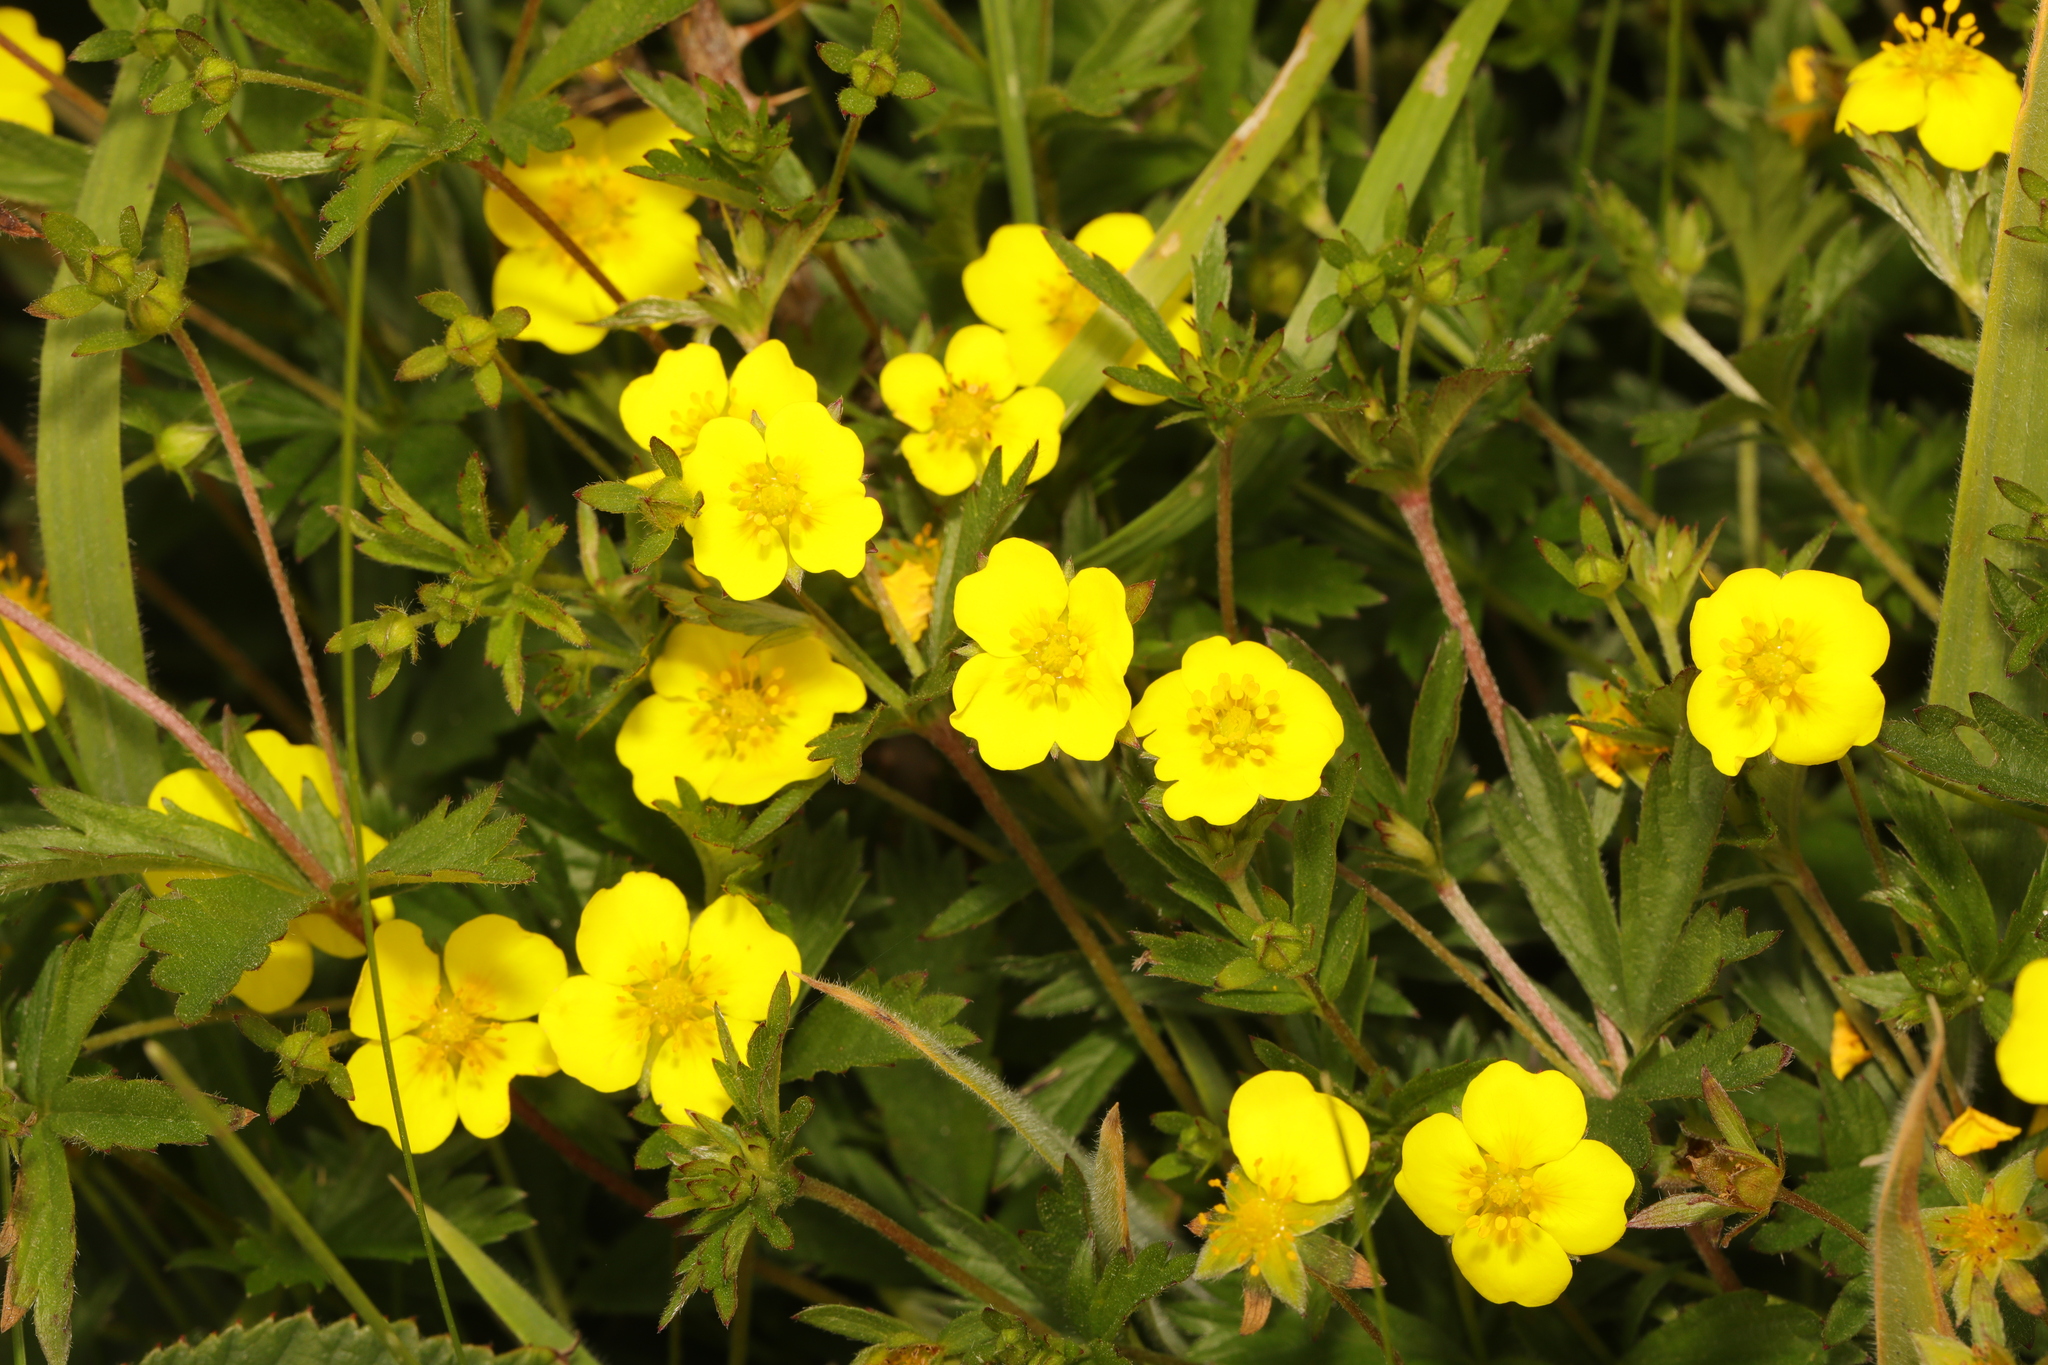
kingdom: Plantae
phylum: Tracheophyta
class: Magnoliopsida
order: Rosales
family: Rosaceae
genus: Potentilla
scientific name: Potentilla erecta
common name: Tormentil
